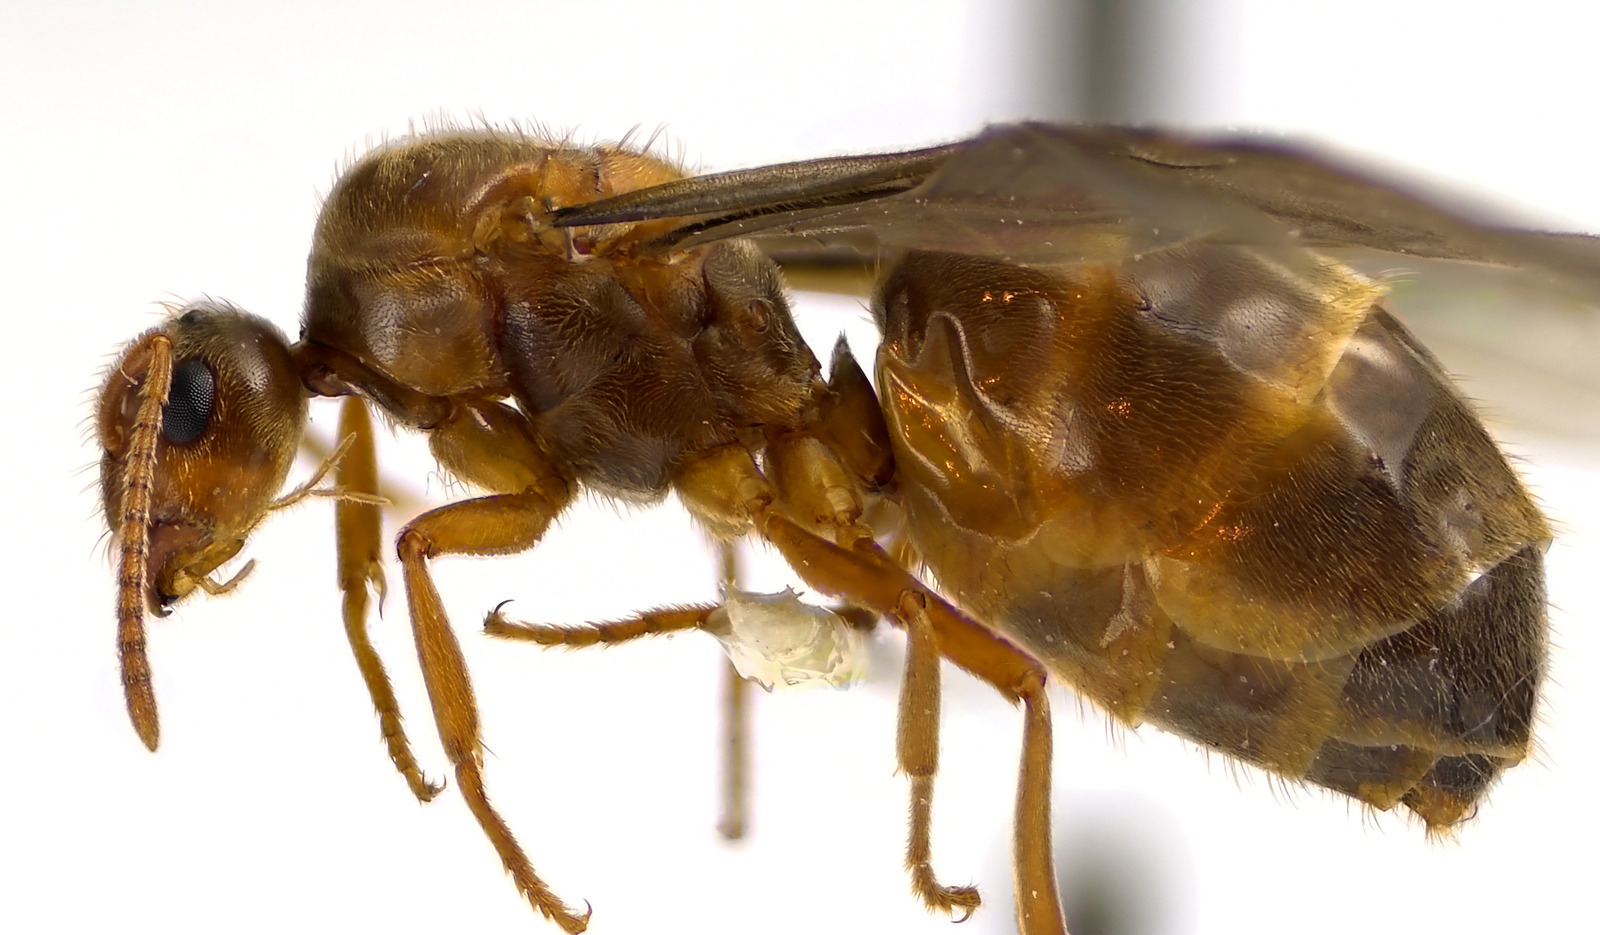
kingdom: Animalia
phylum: Arthropoda
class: Insecta
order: Hymenoptera
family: Formicidae
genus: Prenolepis
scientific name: Prenolepis imparis
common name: Small honey ant
